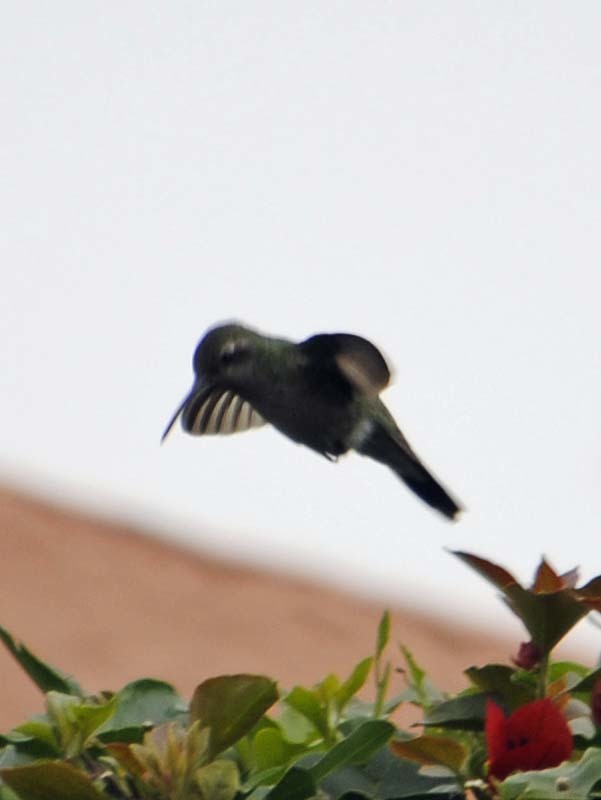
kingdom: Animalia
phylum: Chordata
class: Aves
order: Apodiformes
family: Trochilidae
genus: Cynanthus
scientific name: Cynanthus latirostris
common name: Broad-billed hummingbird
